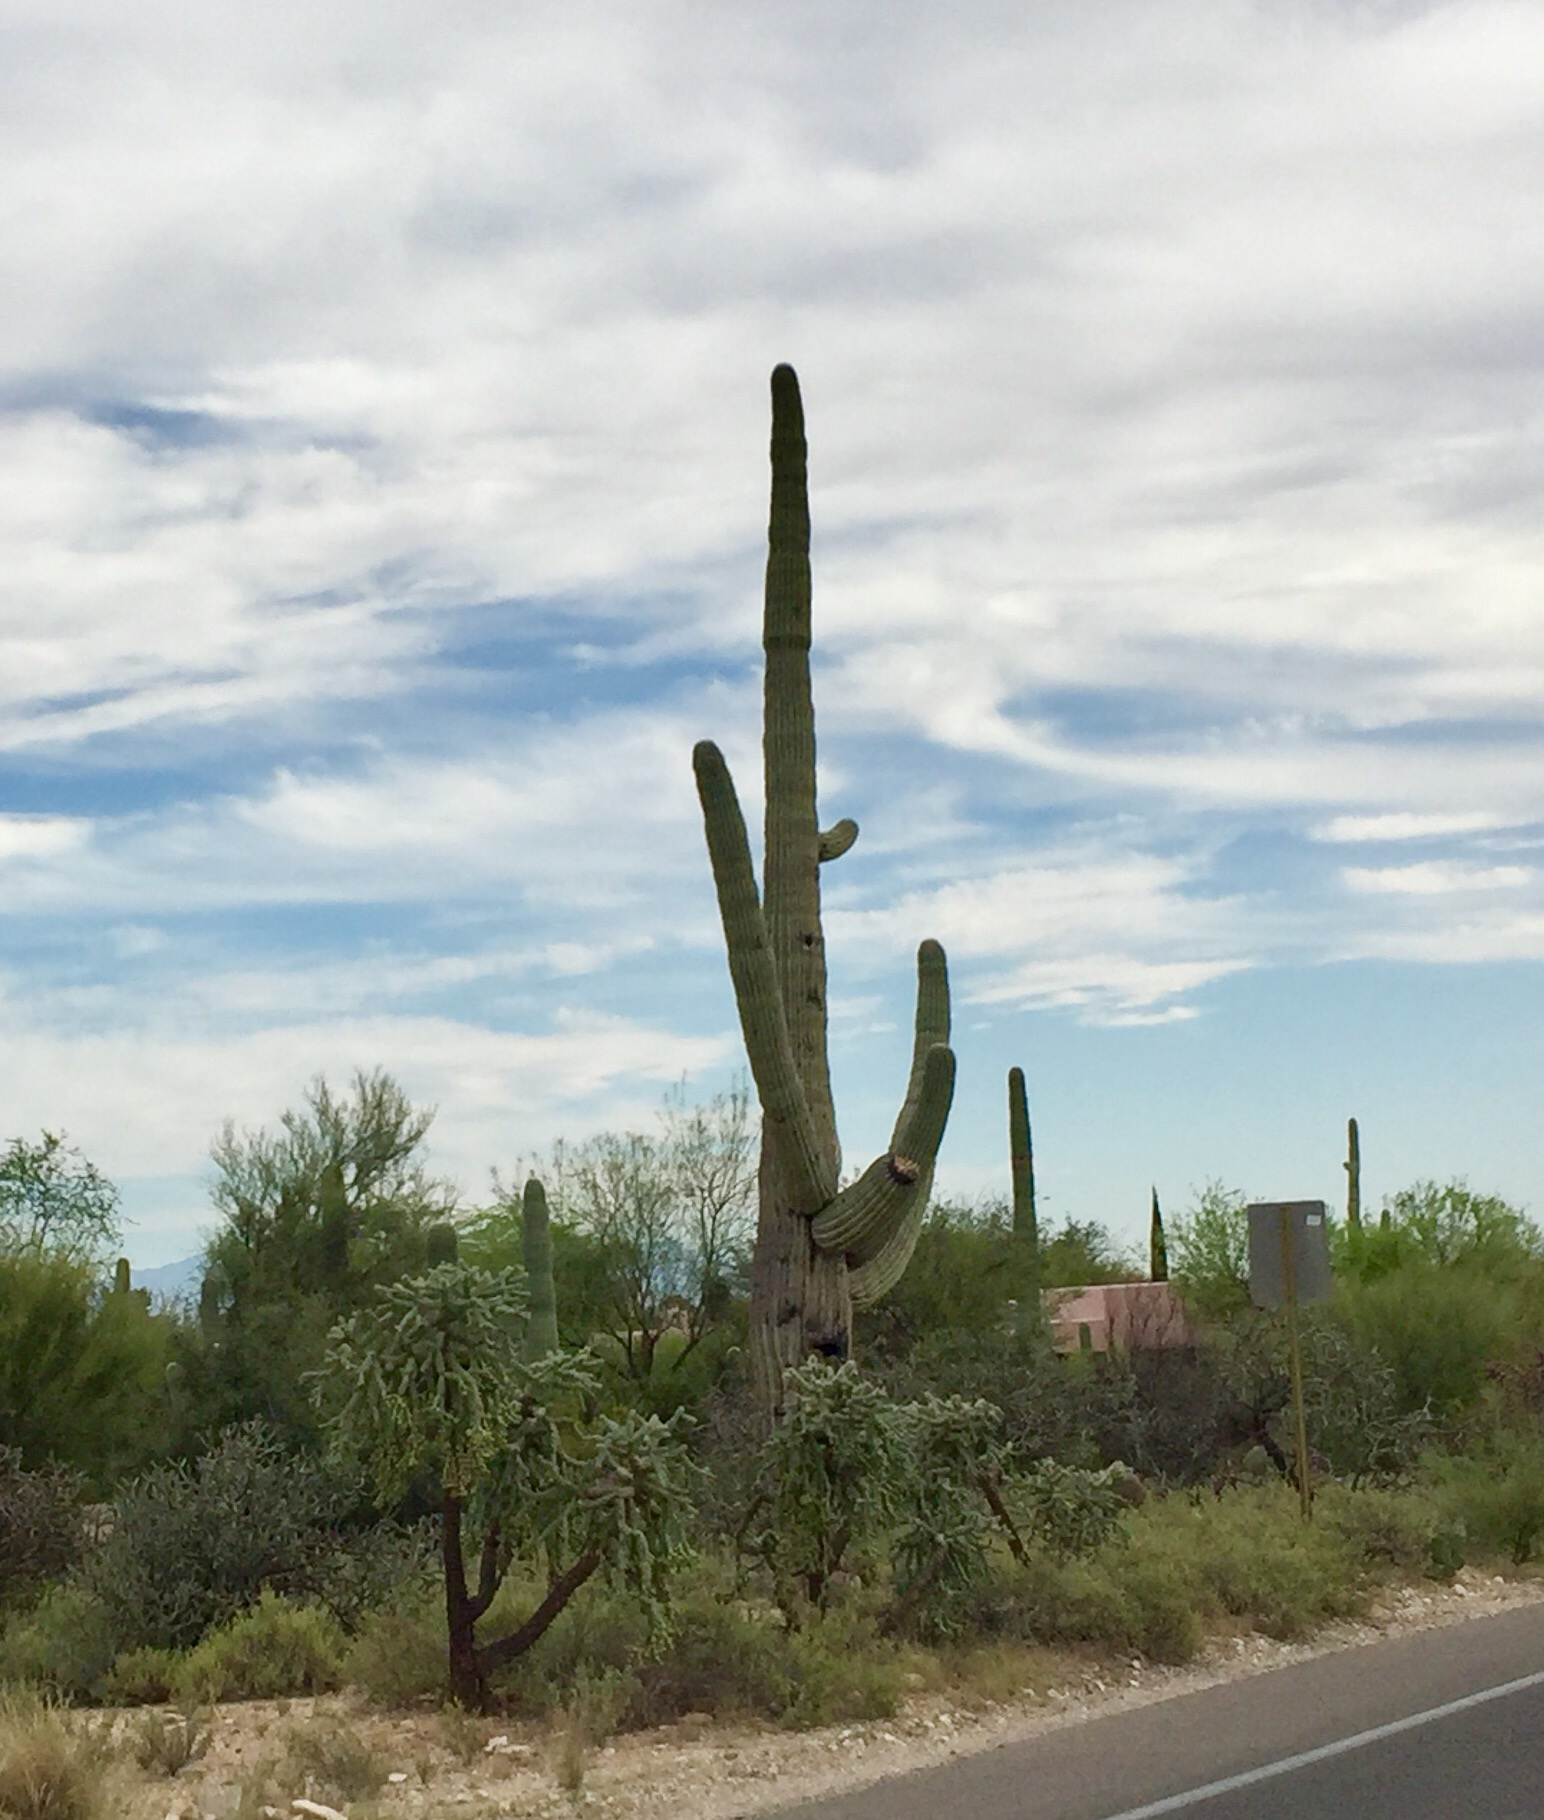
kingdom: Plantae
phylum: Tracheophyta
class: Magnoliopsida
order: Caryophyllales
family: Cactaceae
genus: Carnegiea
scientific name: Carnegiea gigantea
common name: Saguaro
